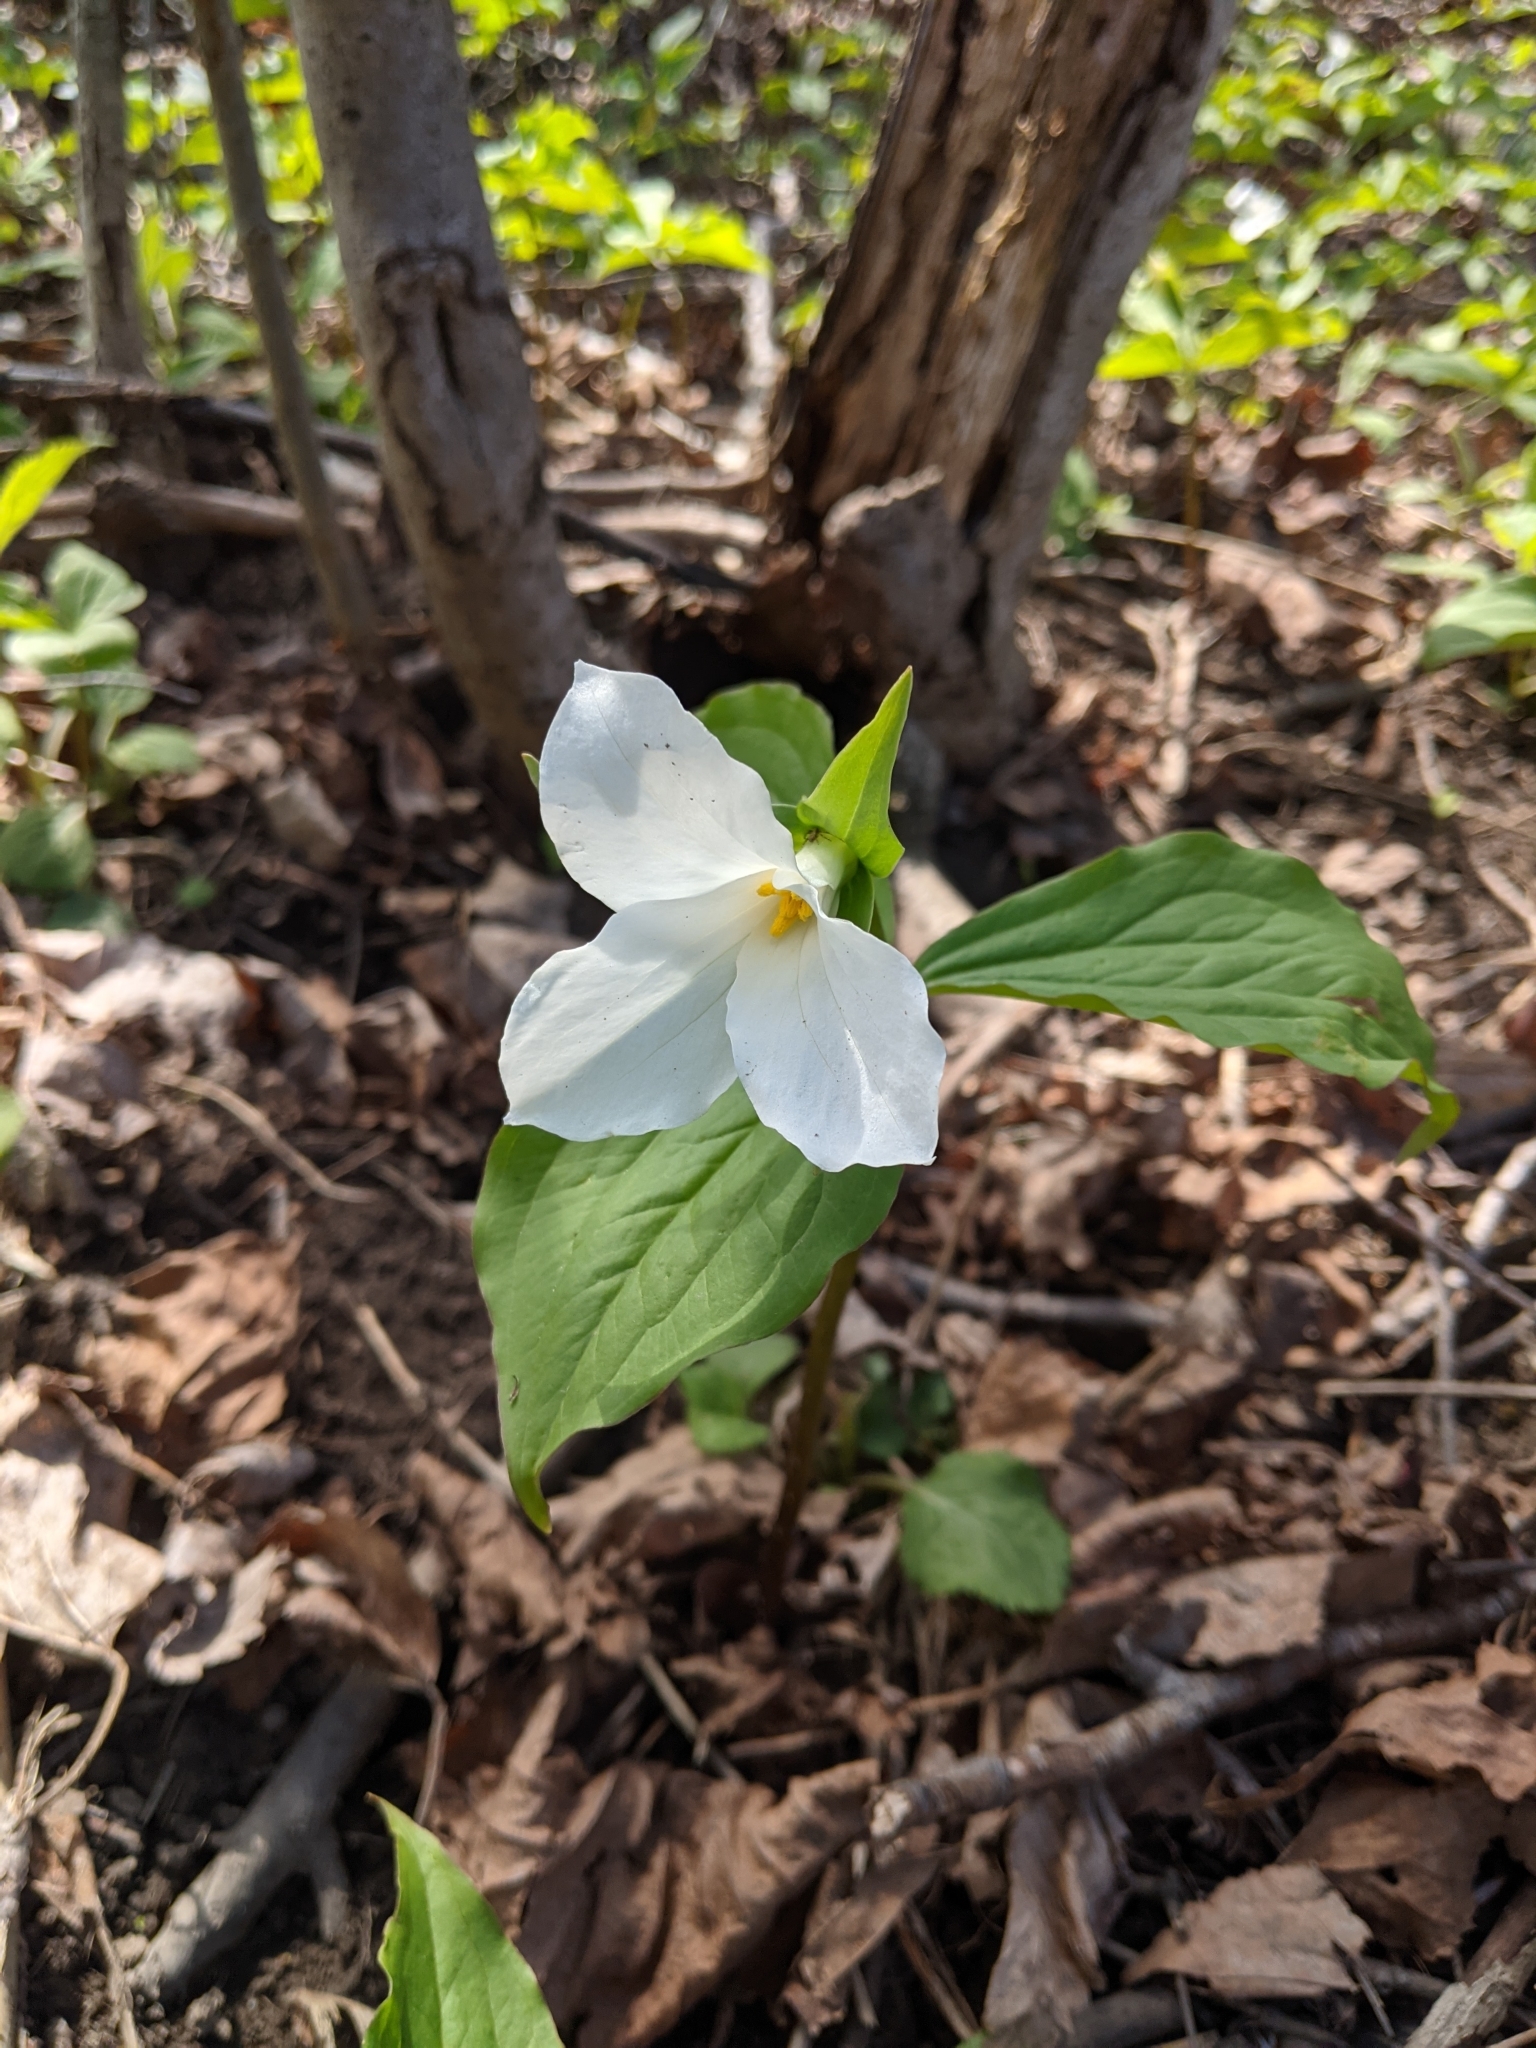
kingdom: Plantae
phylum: Tracheophyta
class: Liliopsida
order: Liliales
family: Melanthiaceae
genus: Trillium
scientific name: Trillium grandiflorum
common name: Great white trillium
